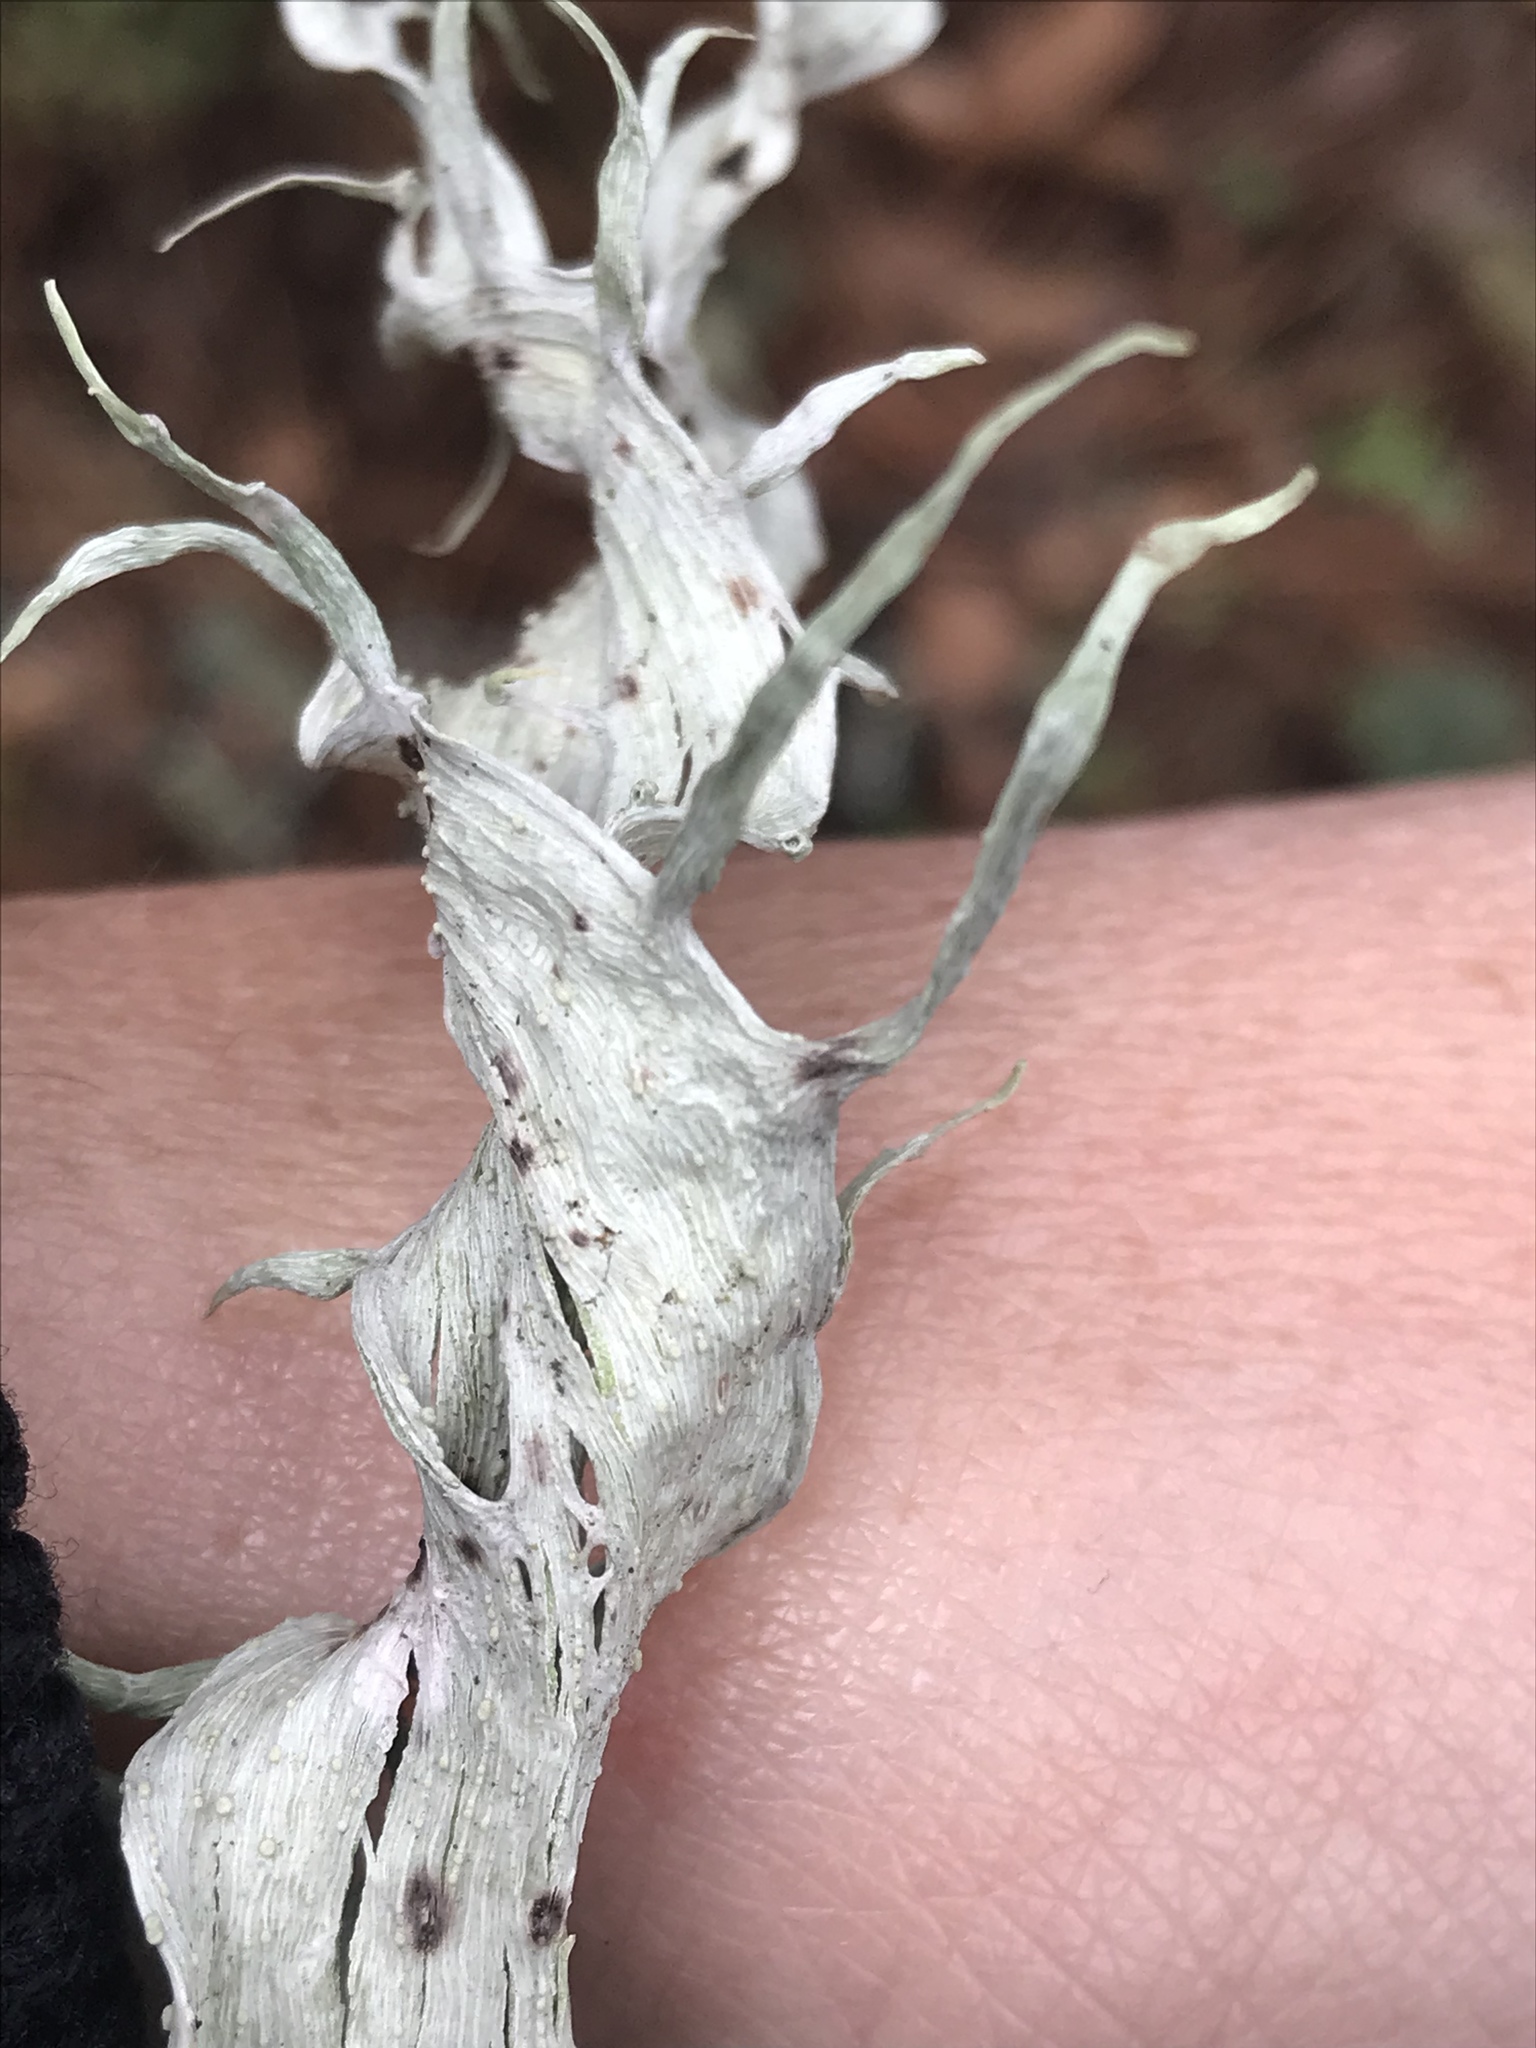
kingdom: Fungi
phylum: Ascomycota
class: Lecanoromycetes
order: Lecanorales
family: Ramalinaceae
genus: Ramalina
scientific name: Ramalina
